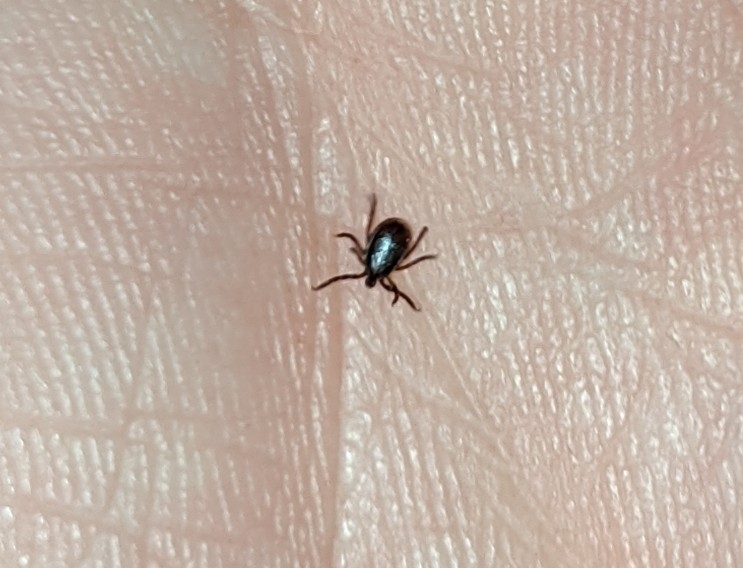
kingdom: Animalia
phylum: Arthropoda
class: Arachnida
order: Ixodida
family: Ixodidae
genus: Ixodes
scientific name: Ixodes scapularis
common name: Black legged tick
